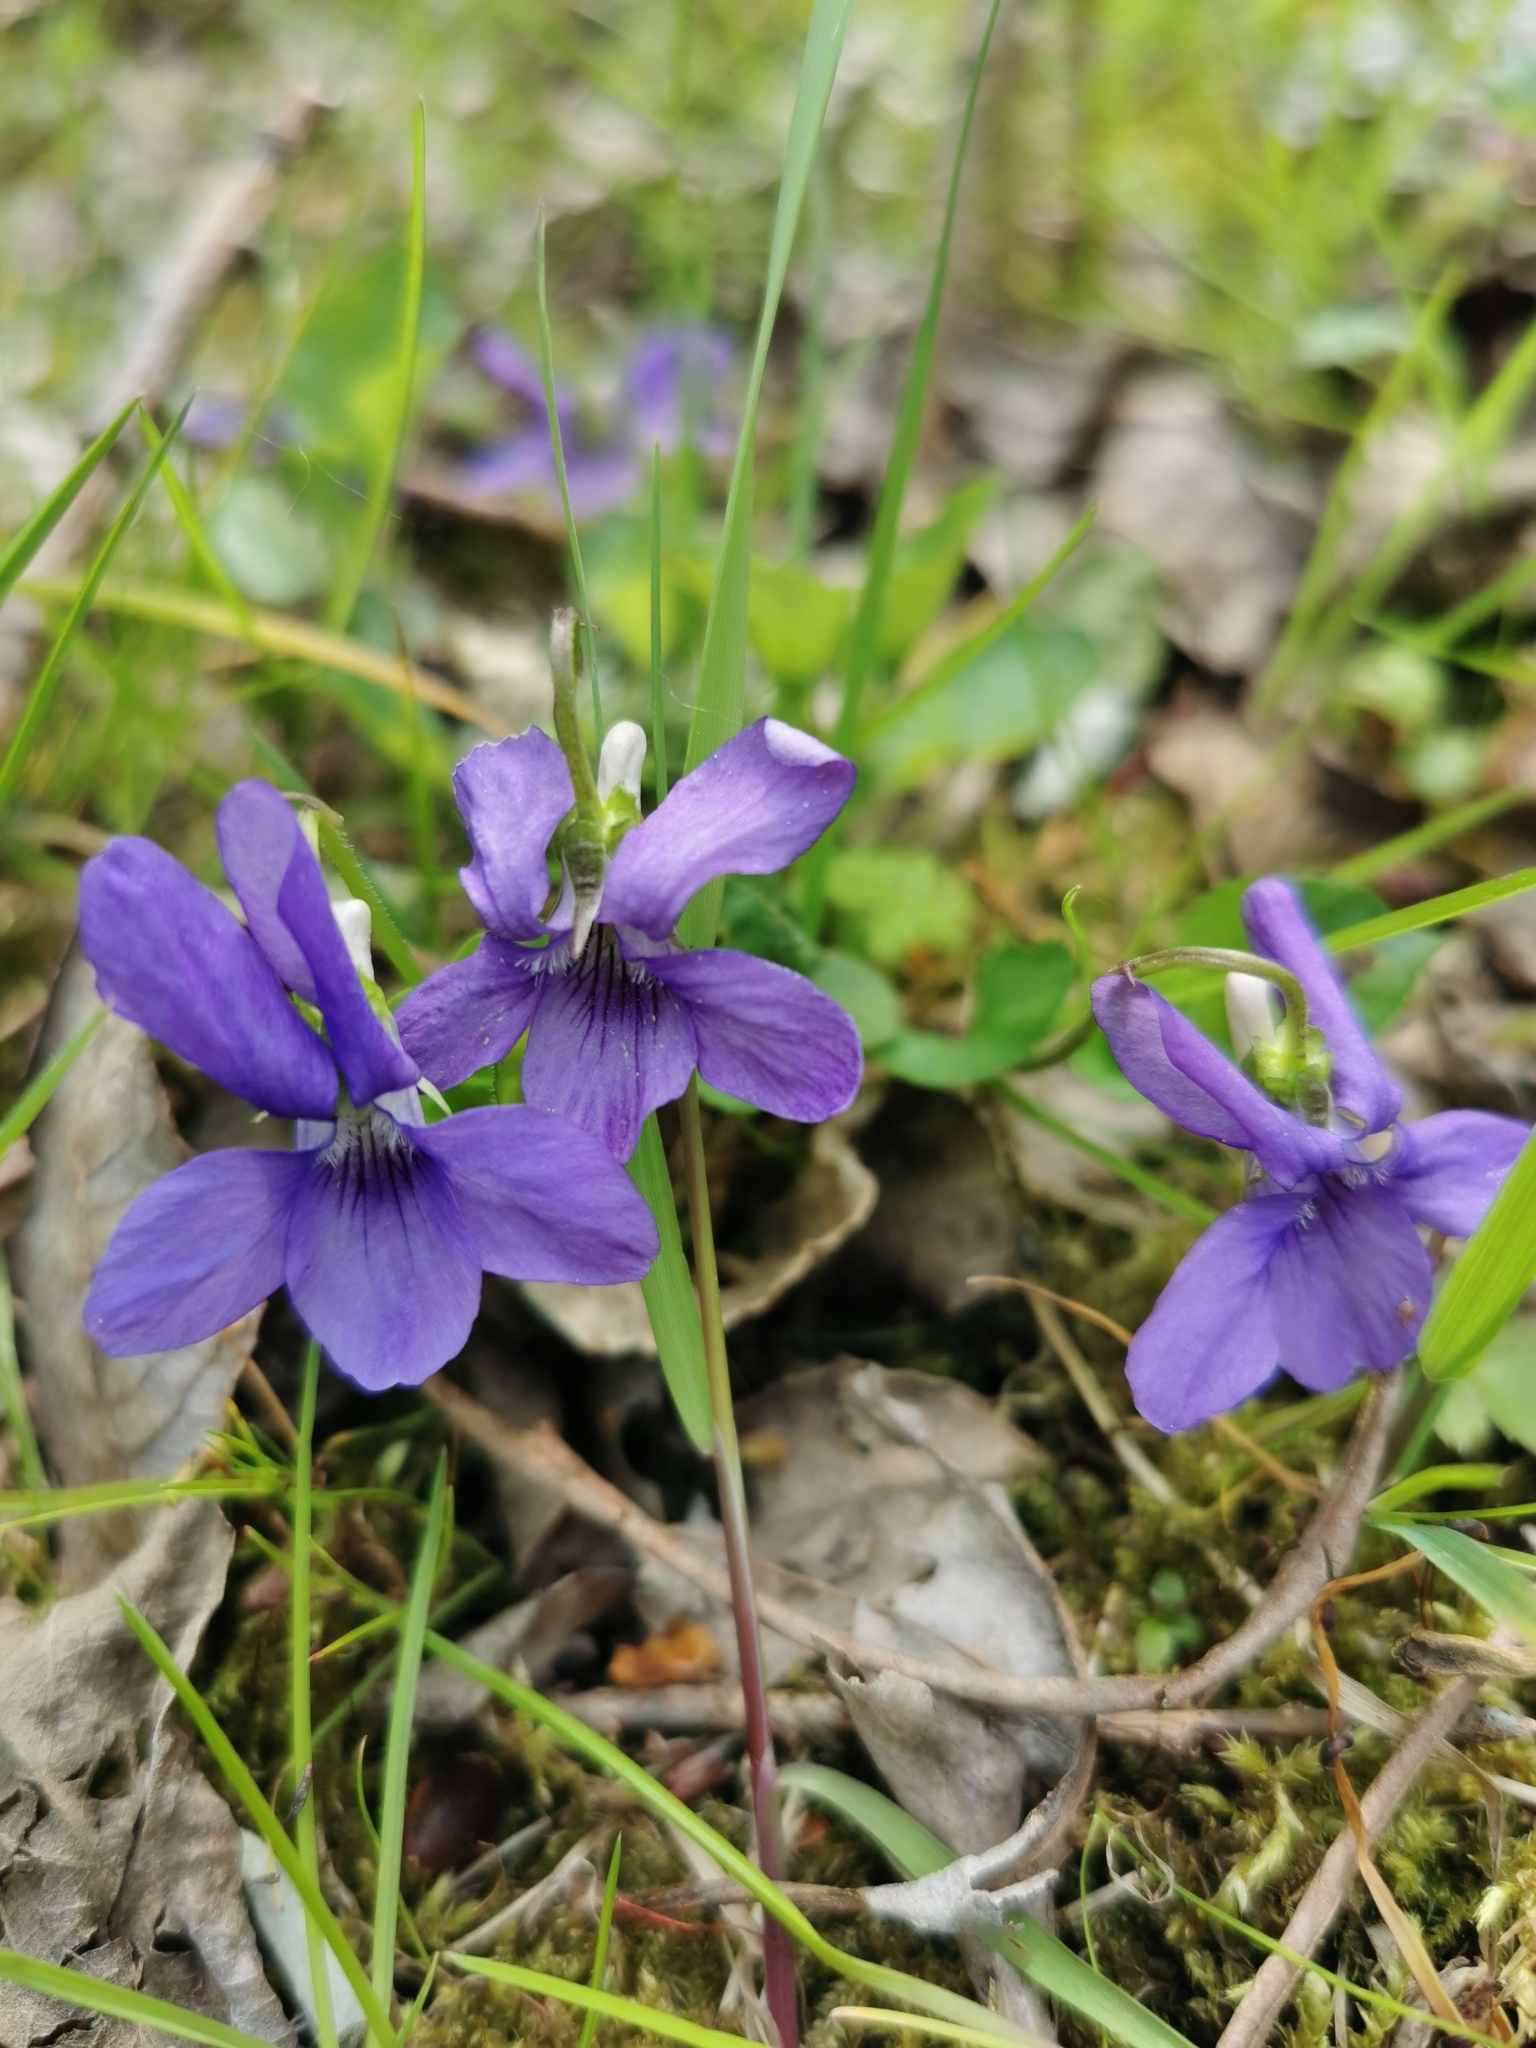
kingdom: Plantae
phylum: Tracheophyta
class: Magnoliopsida
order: Malpighiales
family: Violaceae
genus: Viola
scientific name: Viola riviniana
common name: Common dog-violet
